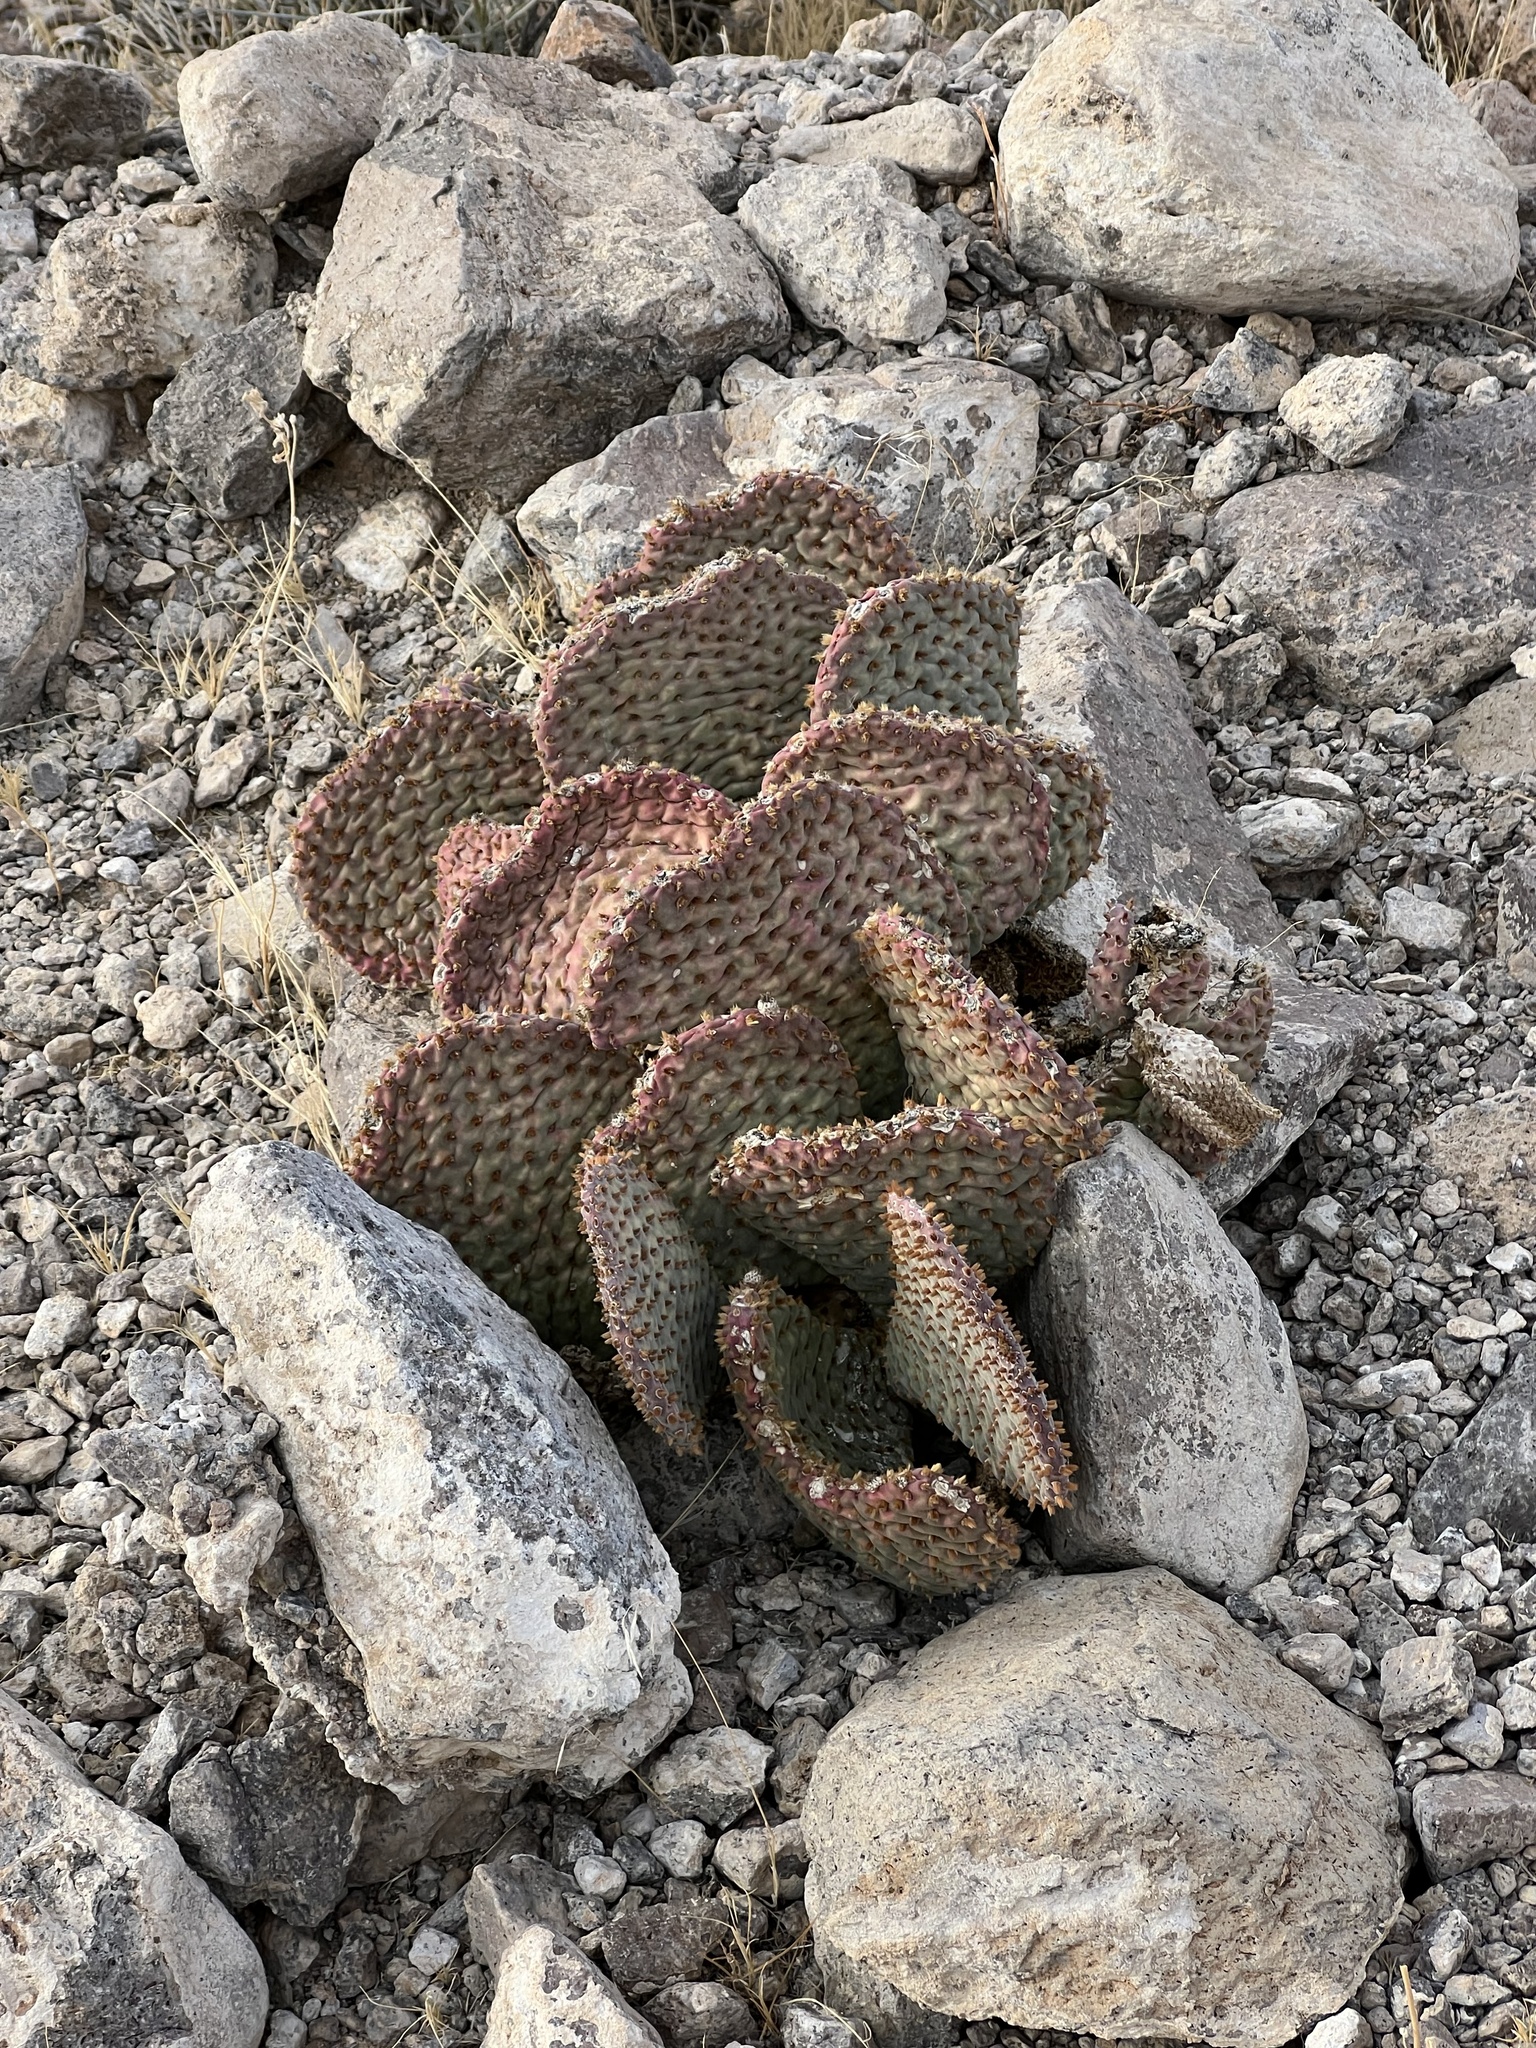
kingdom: Plantae
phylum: Tracheophyta
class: Magnoliopsida
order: Caryophyllales
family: Cactaceae
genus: Opuntia
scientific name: Opuntia basilaris
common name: Beavertail prickly-pear
